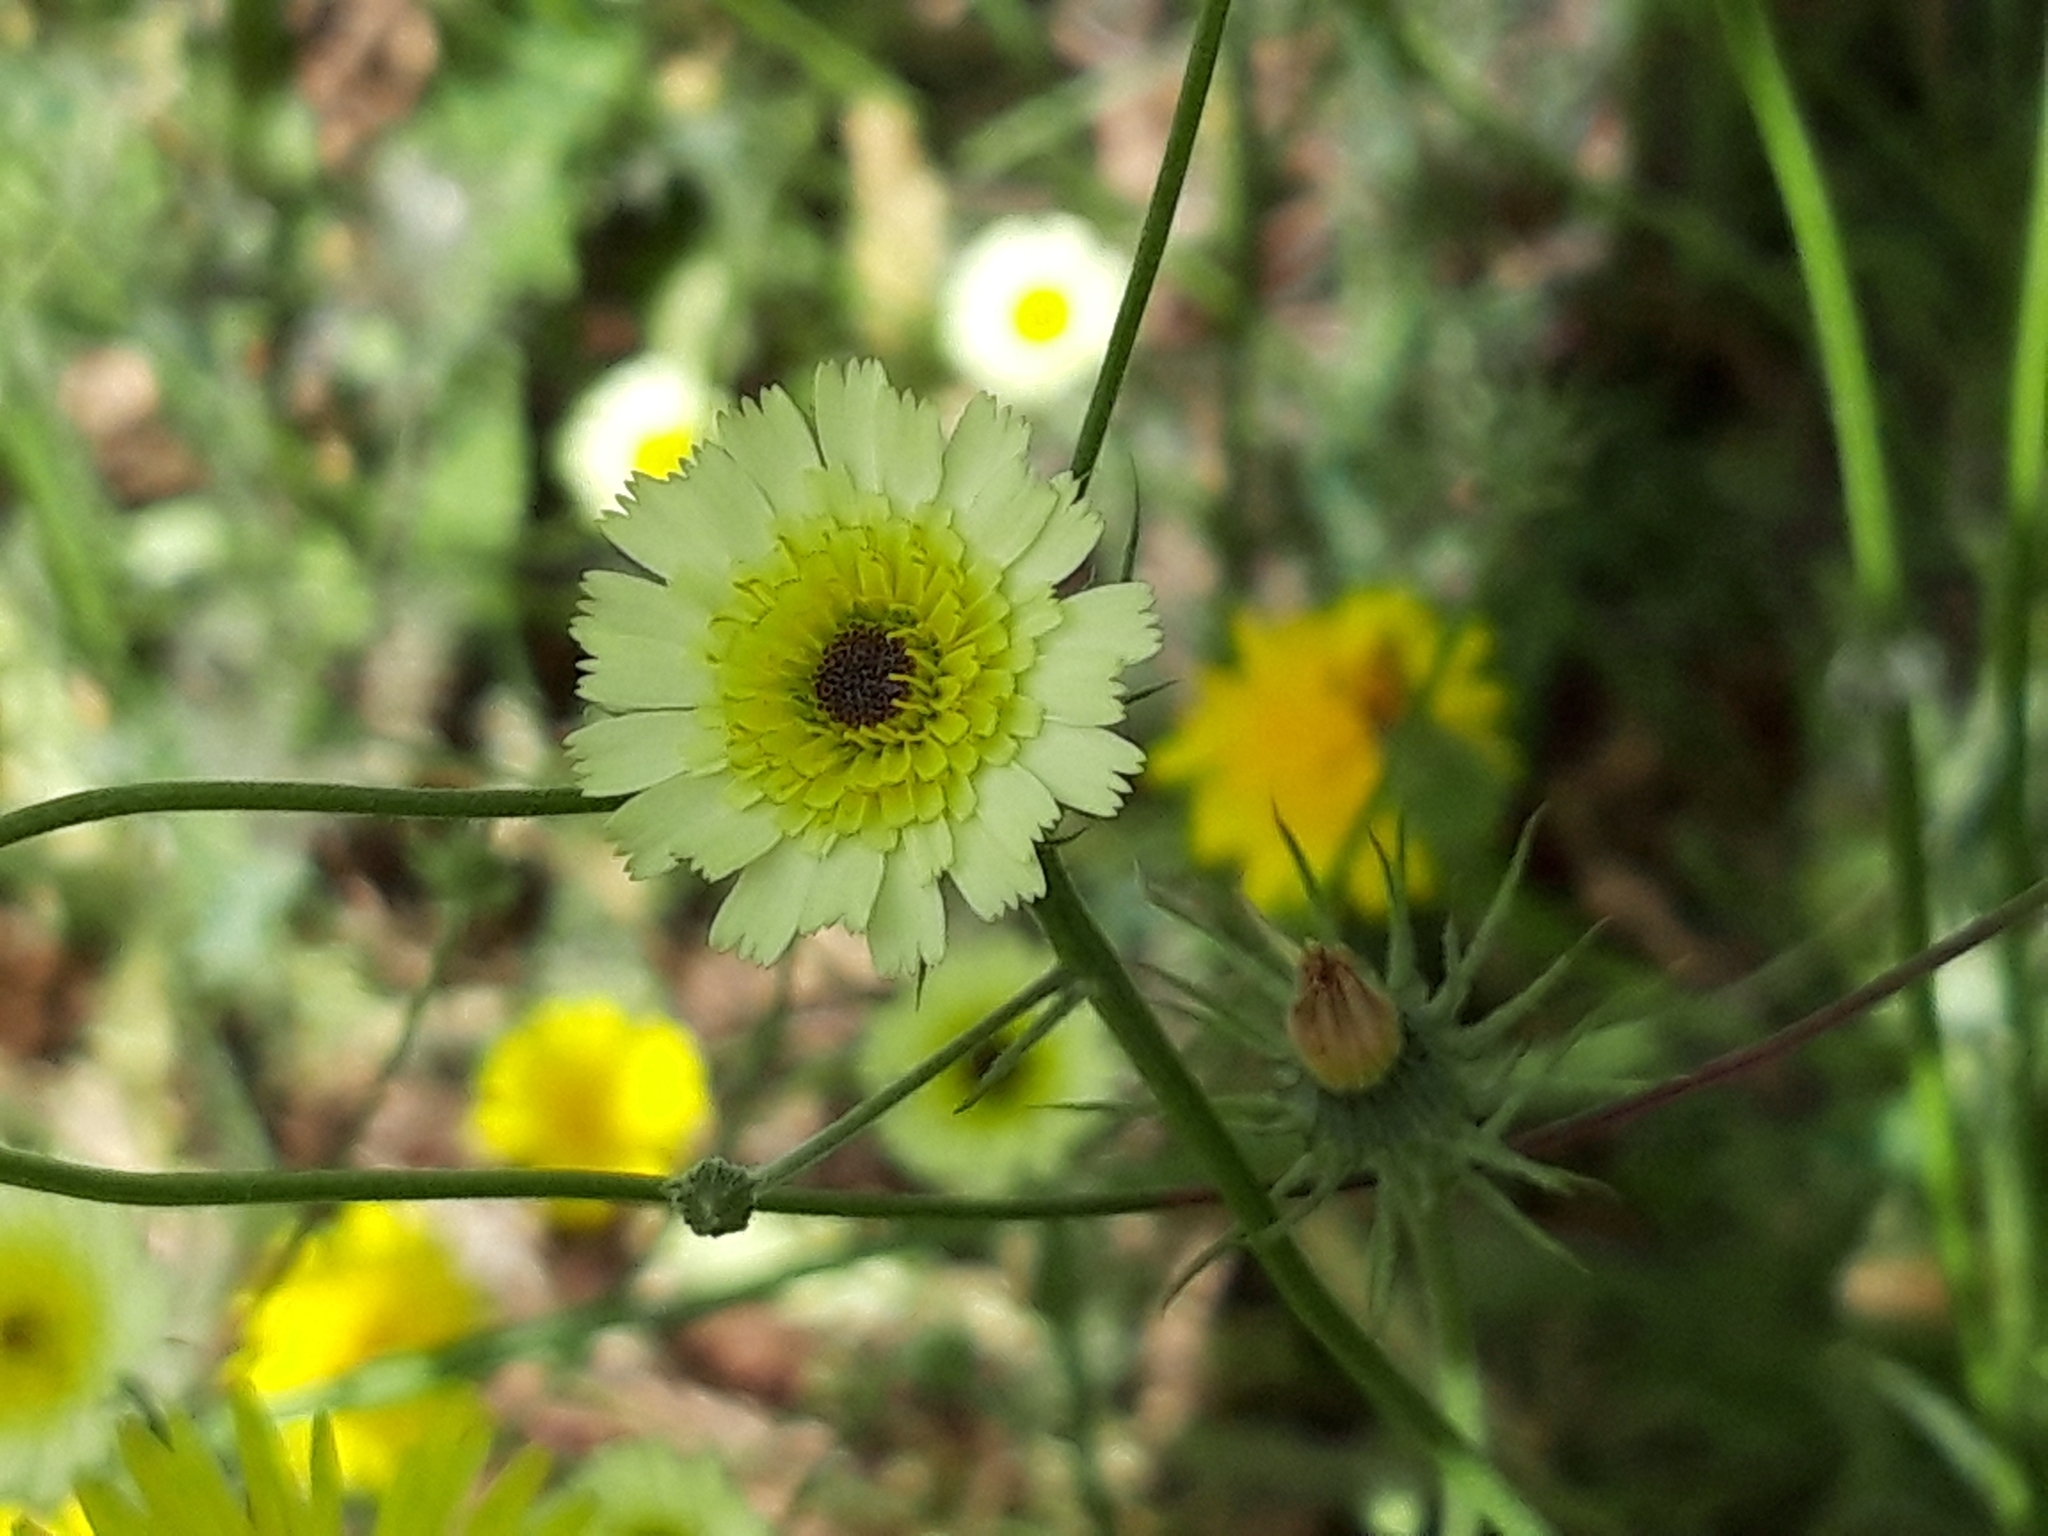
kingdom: Plantae
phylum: Tracheophyta
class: Magnoliopsida
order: Asterales
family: Asteraceae
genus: Tolpis
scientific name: Tolpis barbata
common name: Yellow hawkweed
